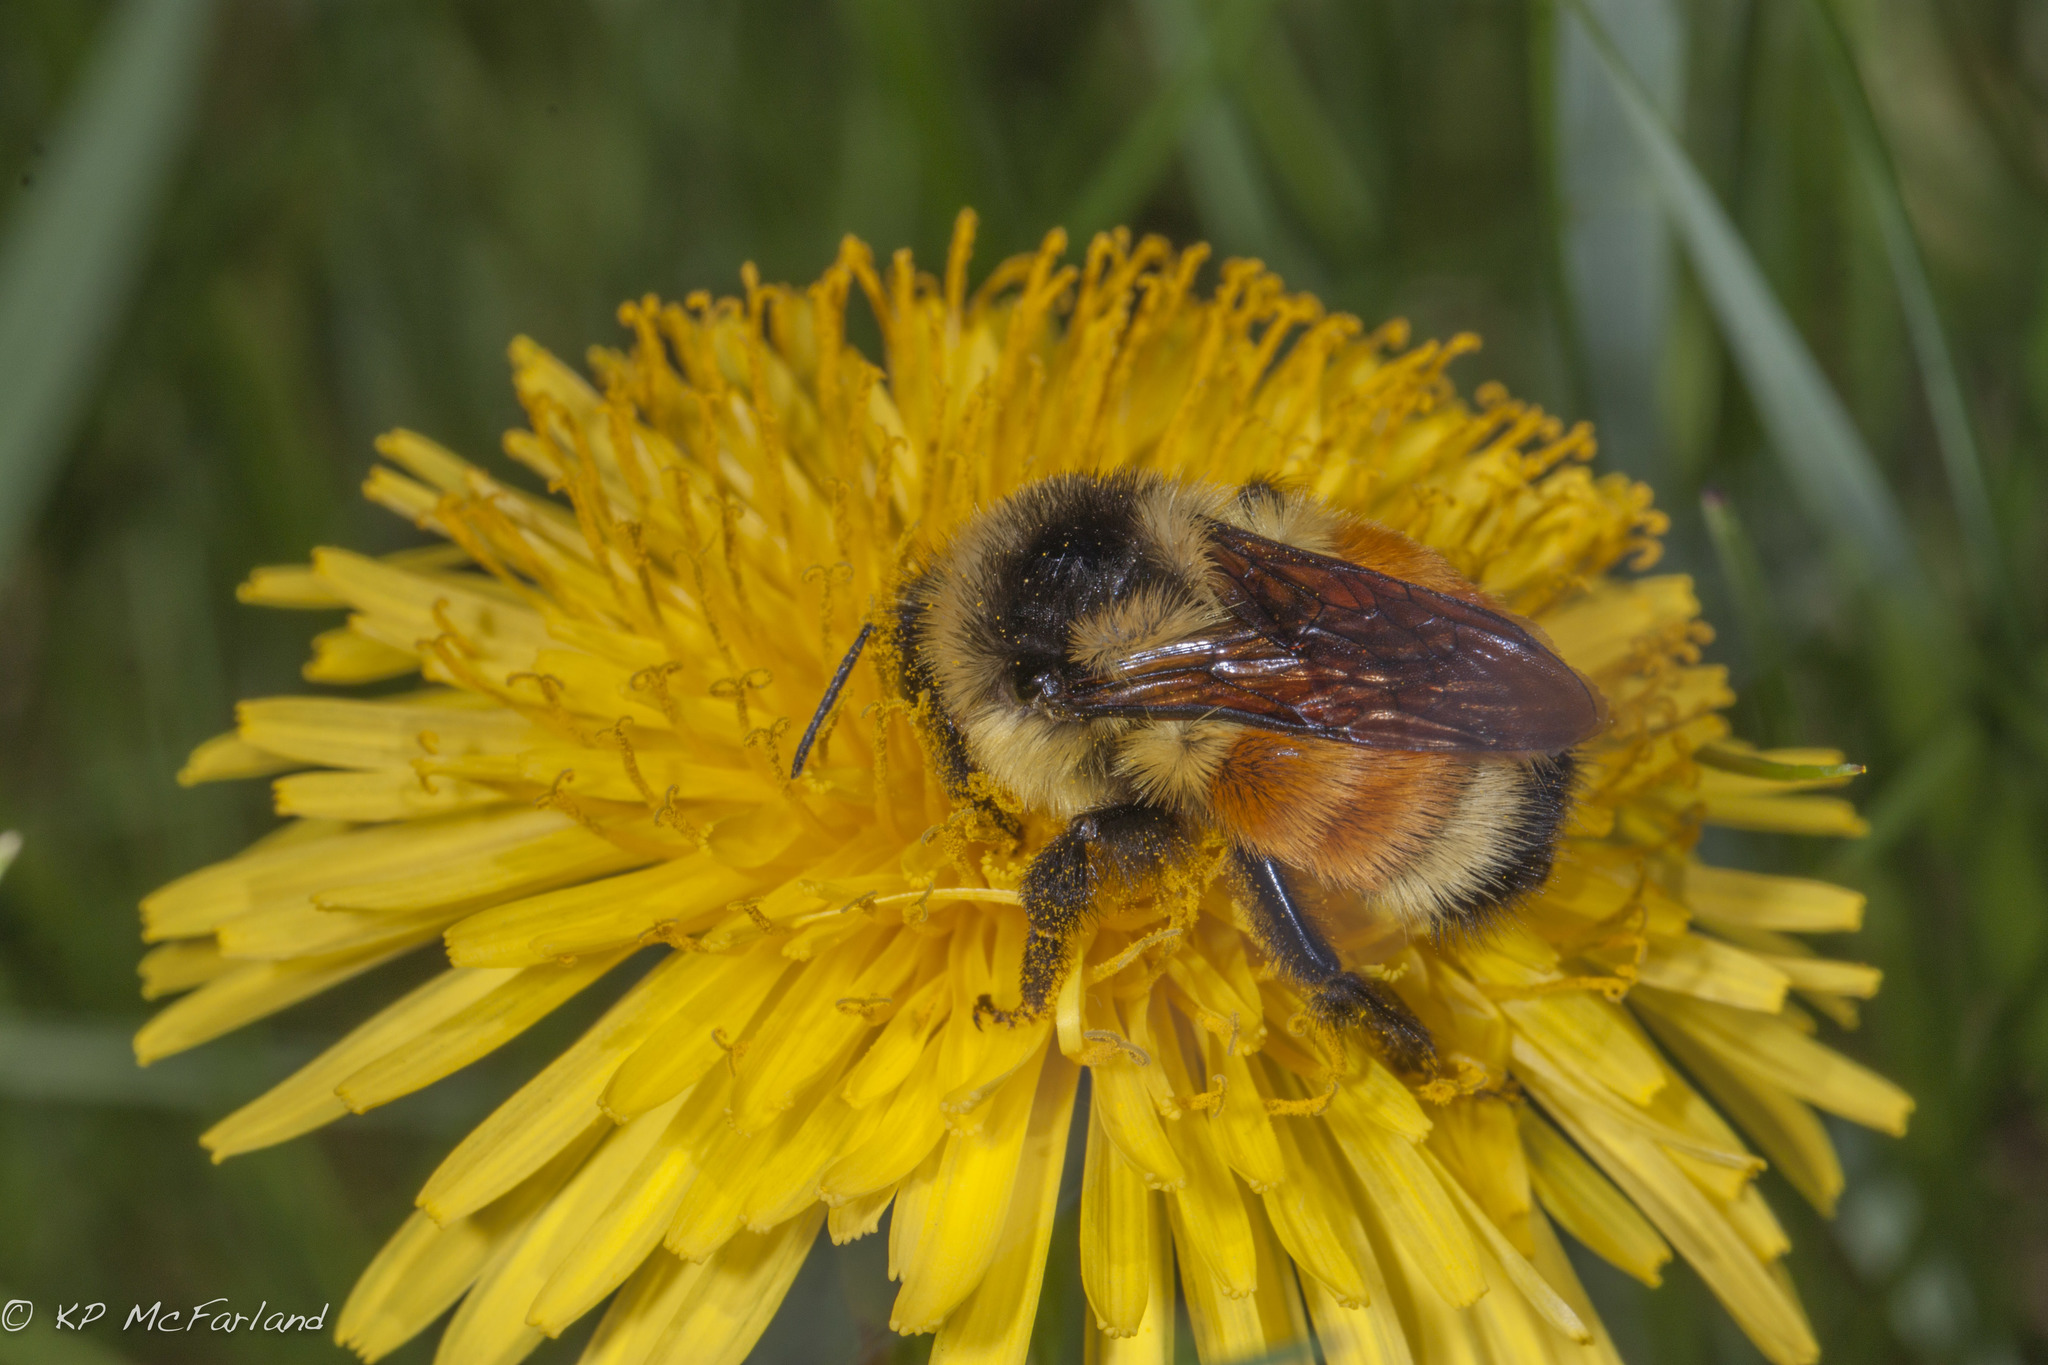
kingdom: Animalia
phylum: Arthropoda
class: Insecta
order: Hymenoptera
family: Apidae
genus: Bombus
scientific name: Bombus ternarius
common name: Tri-colored bumble bee
